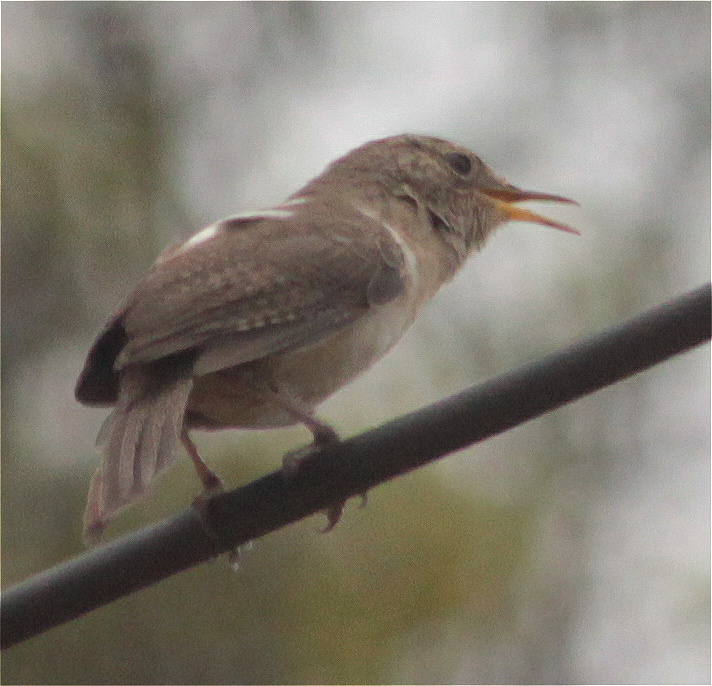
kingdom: Animalia
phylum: Chordata
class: Aves
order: Passeriformes
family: Troglodytidae
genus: Troglodytes
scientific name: Troglodytes aedon
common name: House wren
